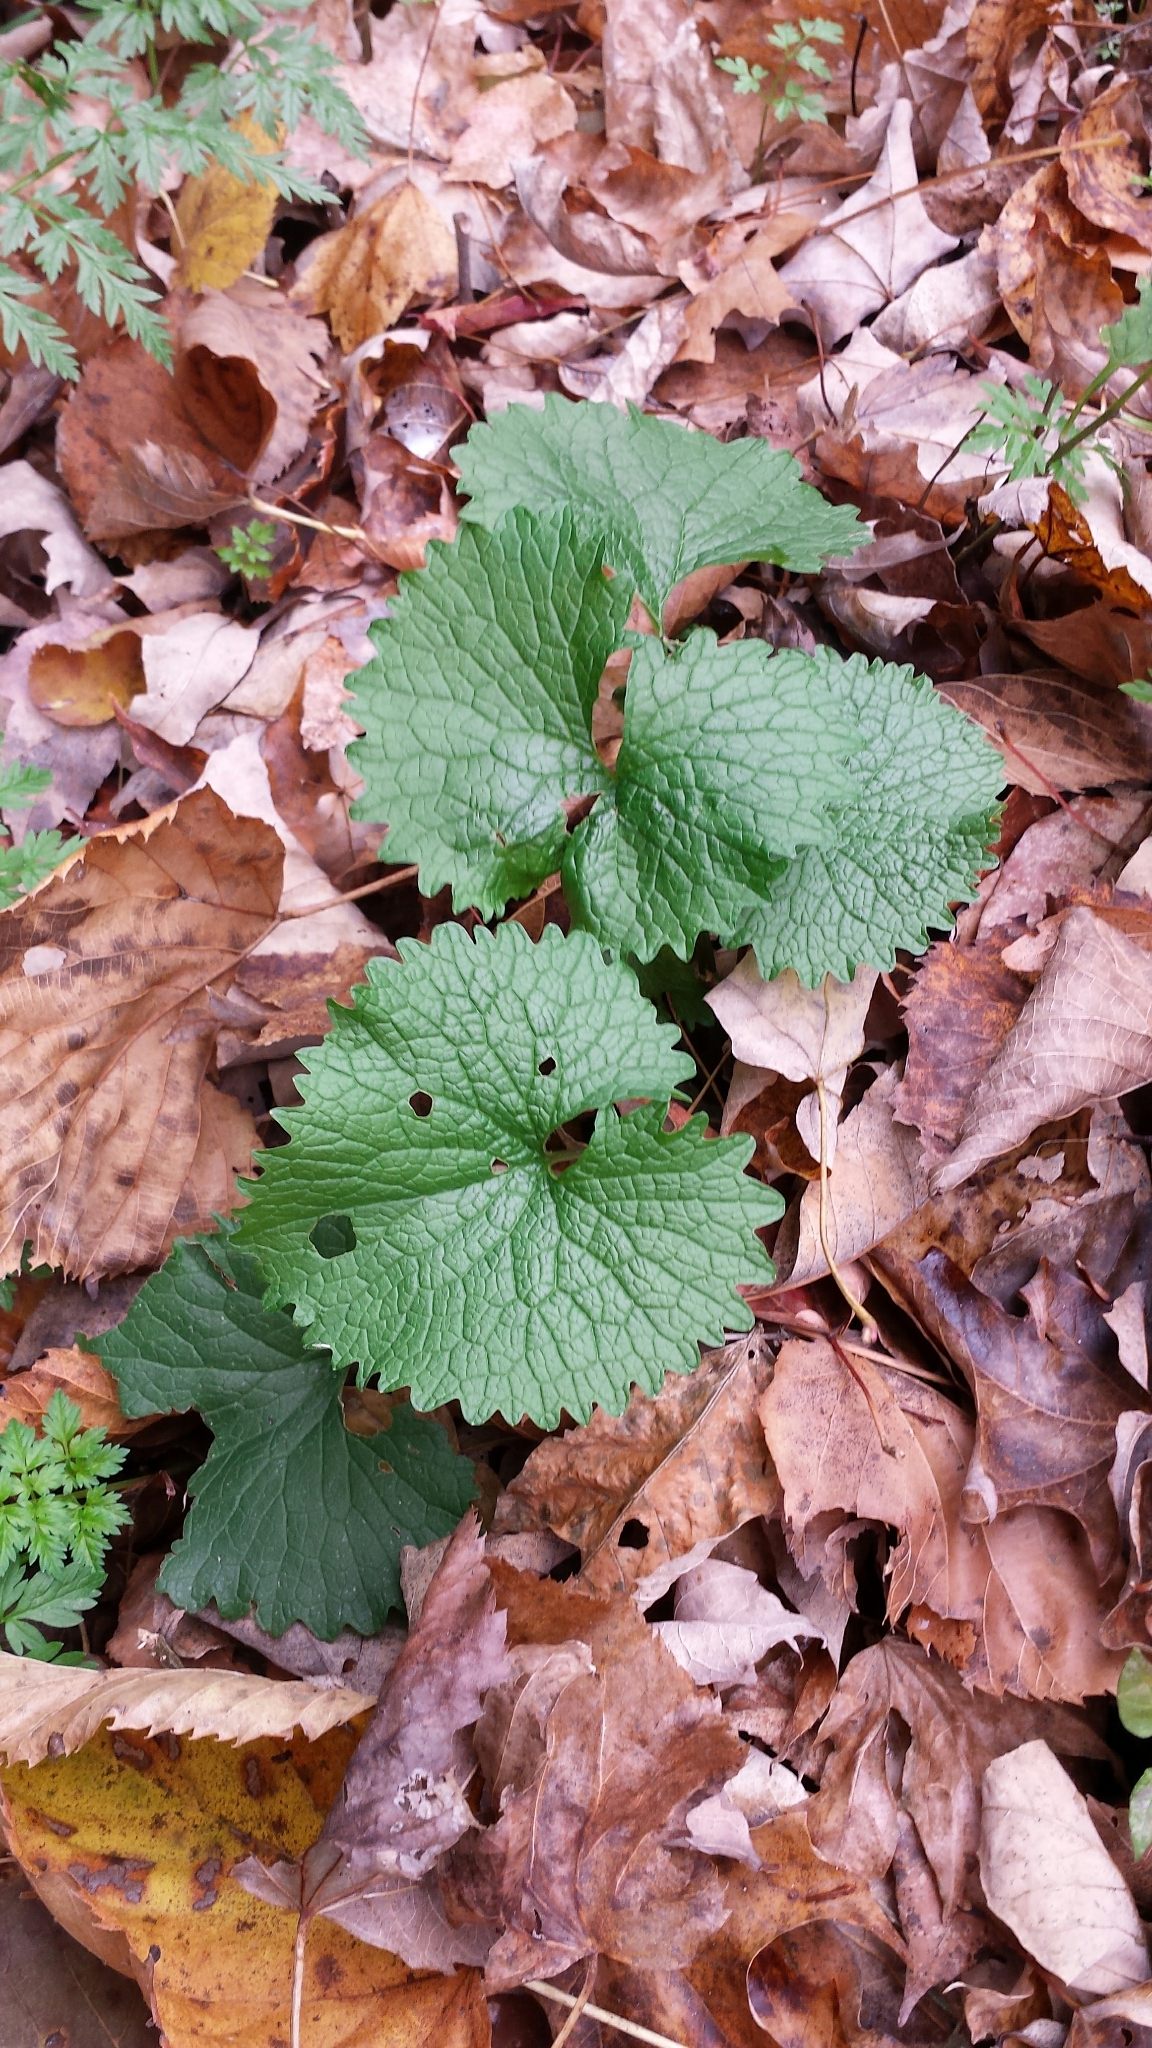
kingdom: Plantae
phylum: Tracheophyta
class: Magnoliopsida
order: Brassicales
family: Brassicaceae
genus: Alliaria
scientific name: Alliaria petiolata
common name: Garlic mustard
